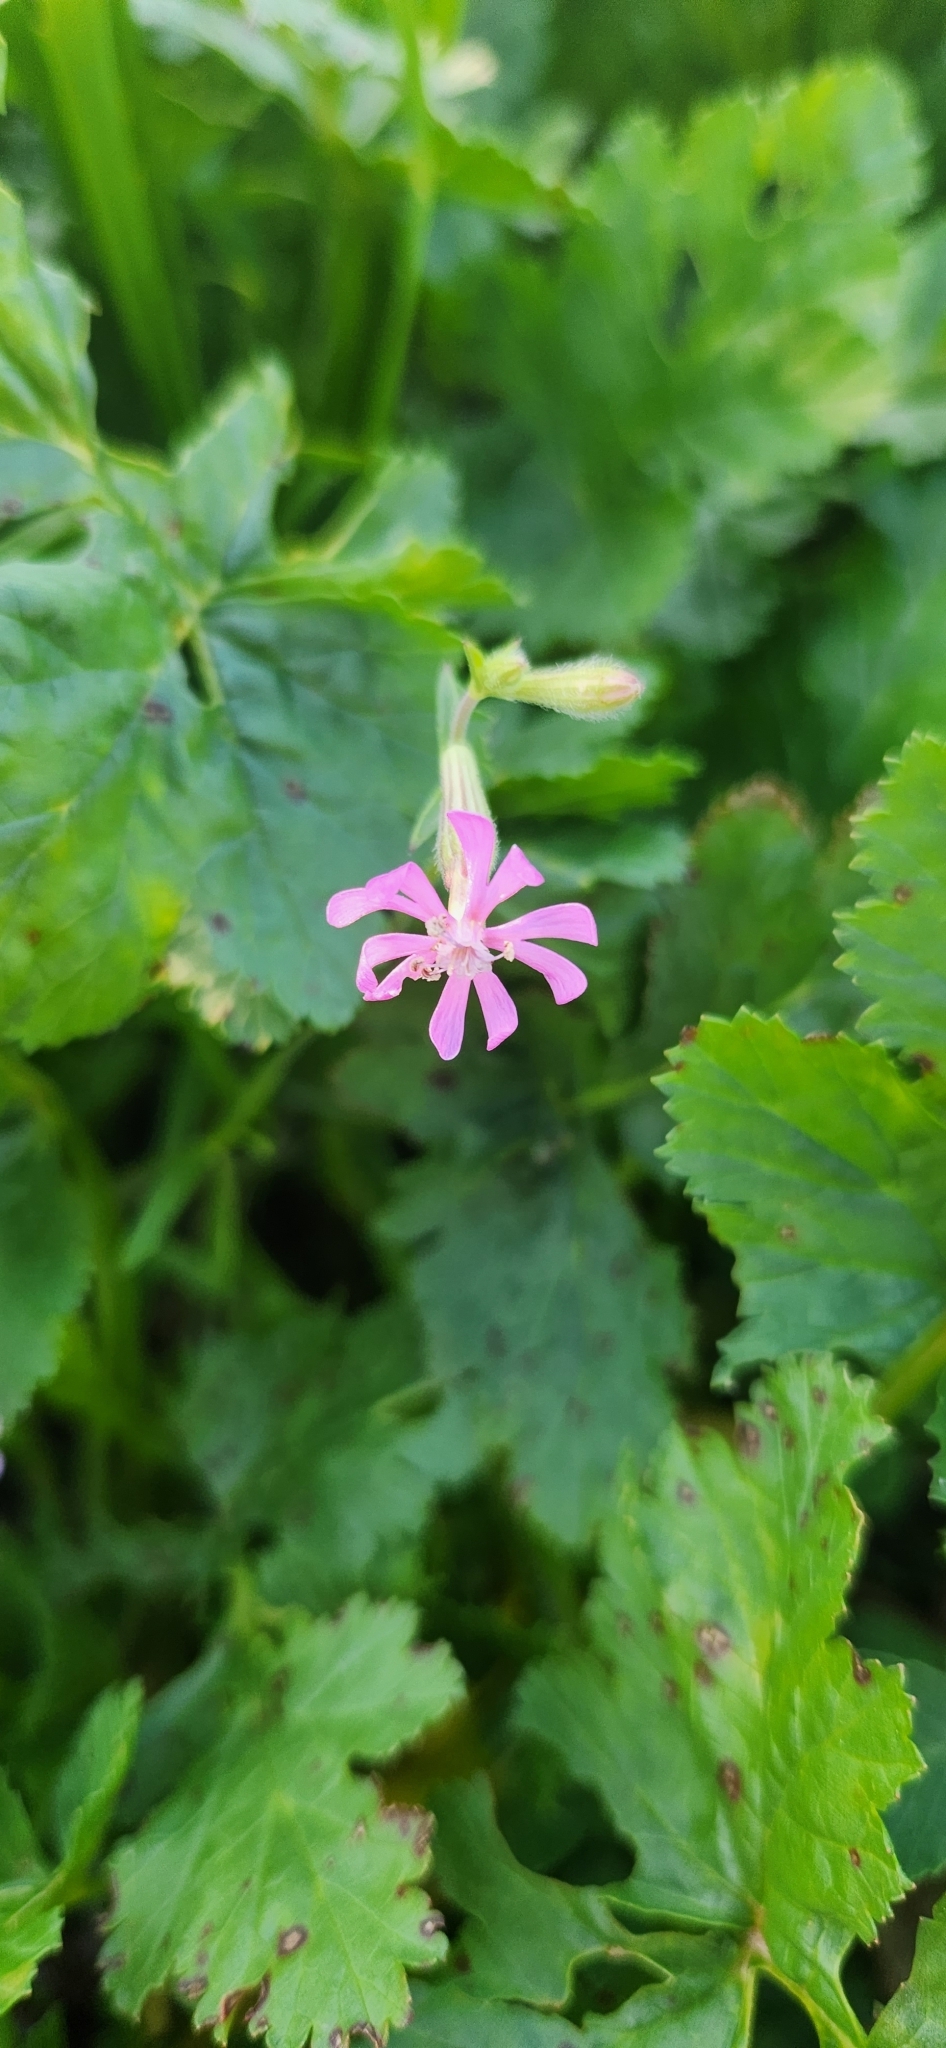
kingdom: Plantae
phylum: Tracheophyta
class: Magnoliopsida
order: Caryophyllales
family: Caryophyllaceae
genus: Silene
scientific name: Silene colorata
